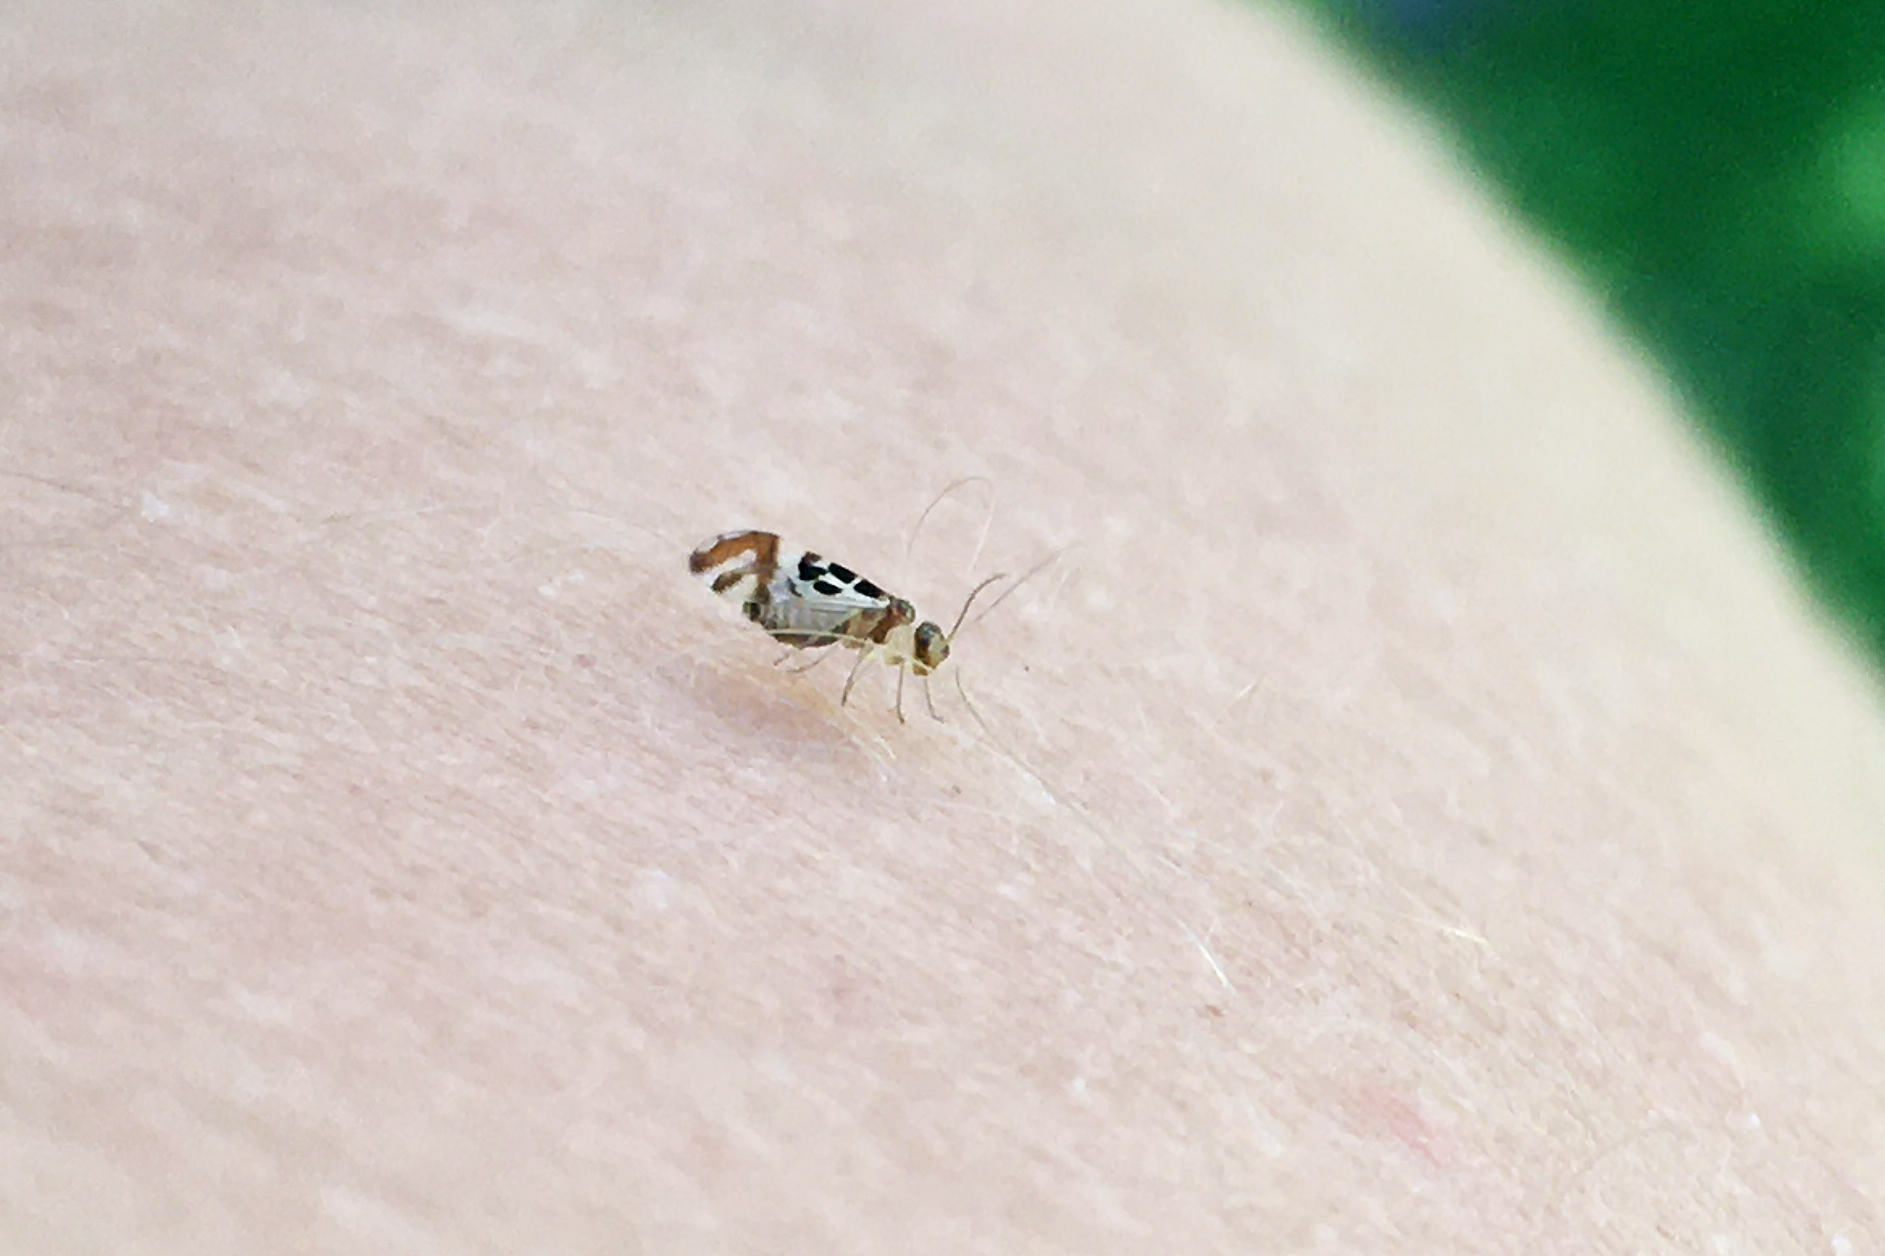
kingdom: Animalia
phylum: Arthropoda
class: Insecta
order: Psocodea
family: Stenopsocidae
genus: Graphopsocus
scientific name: Graphopsocus cruciatus
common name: Lizard bark louse
